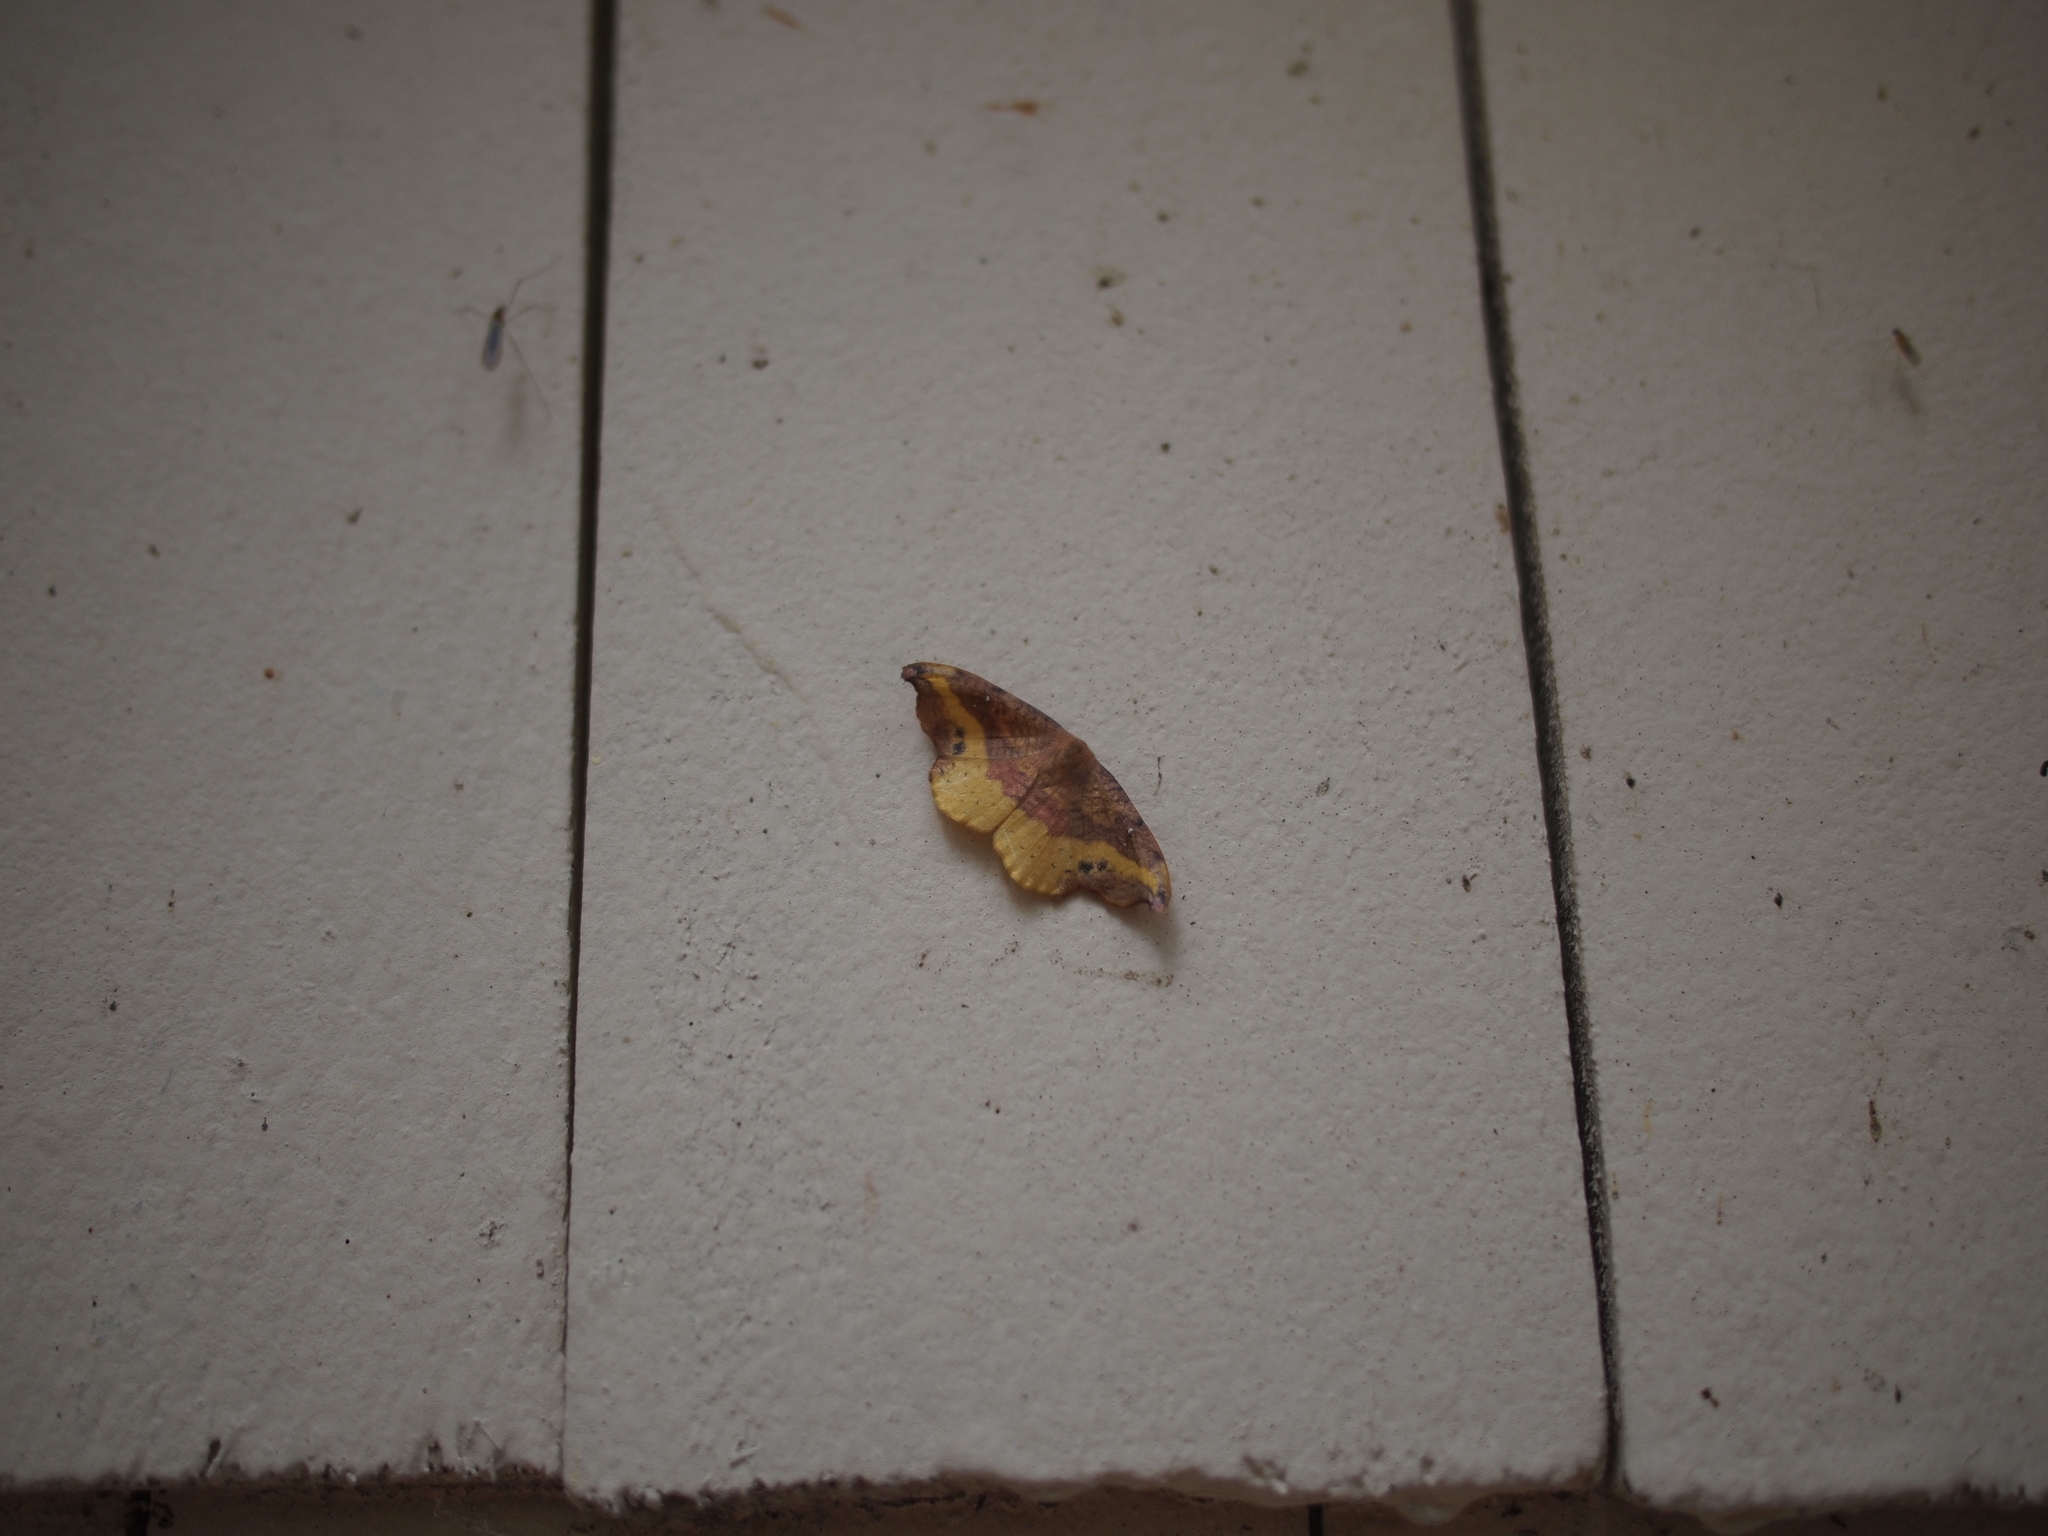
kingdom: Animalia
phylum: Arthropoda
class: Insecta
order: Lepidoptera
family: Drepanidae
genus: Oreta
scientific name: Oreta rosea
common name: Rose hooktip
